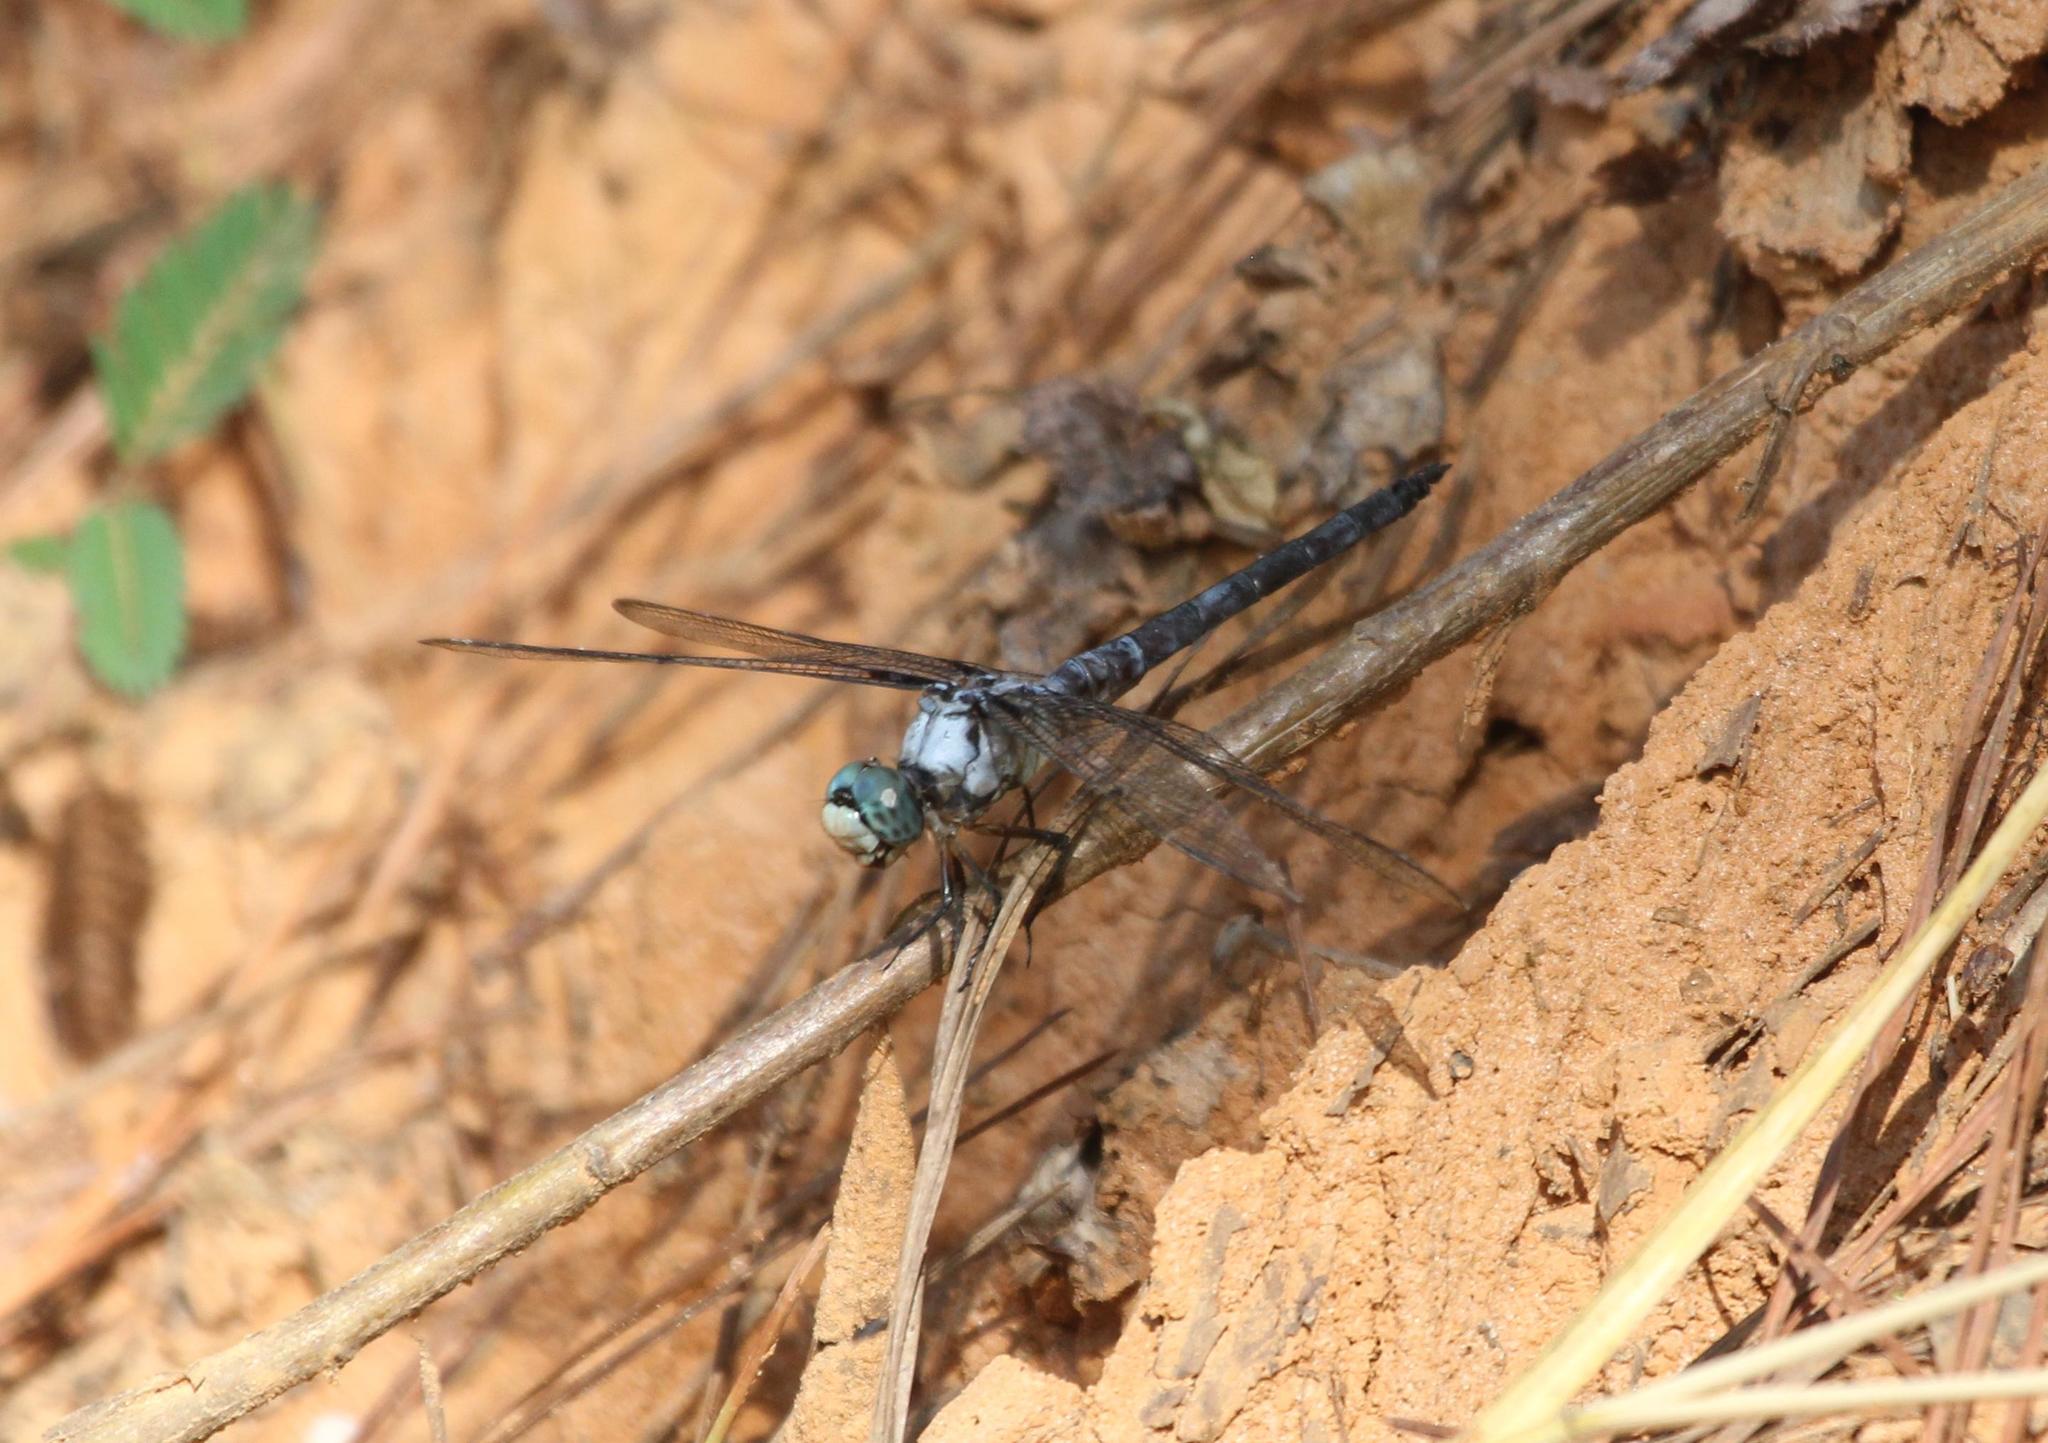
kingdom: Animalia
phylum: Arthropoda
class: Insecta
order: Odonata
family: Libellulidae
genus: Libellula
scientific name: Libellula vibrans
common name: Great blue skimmer
